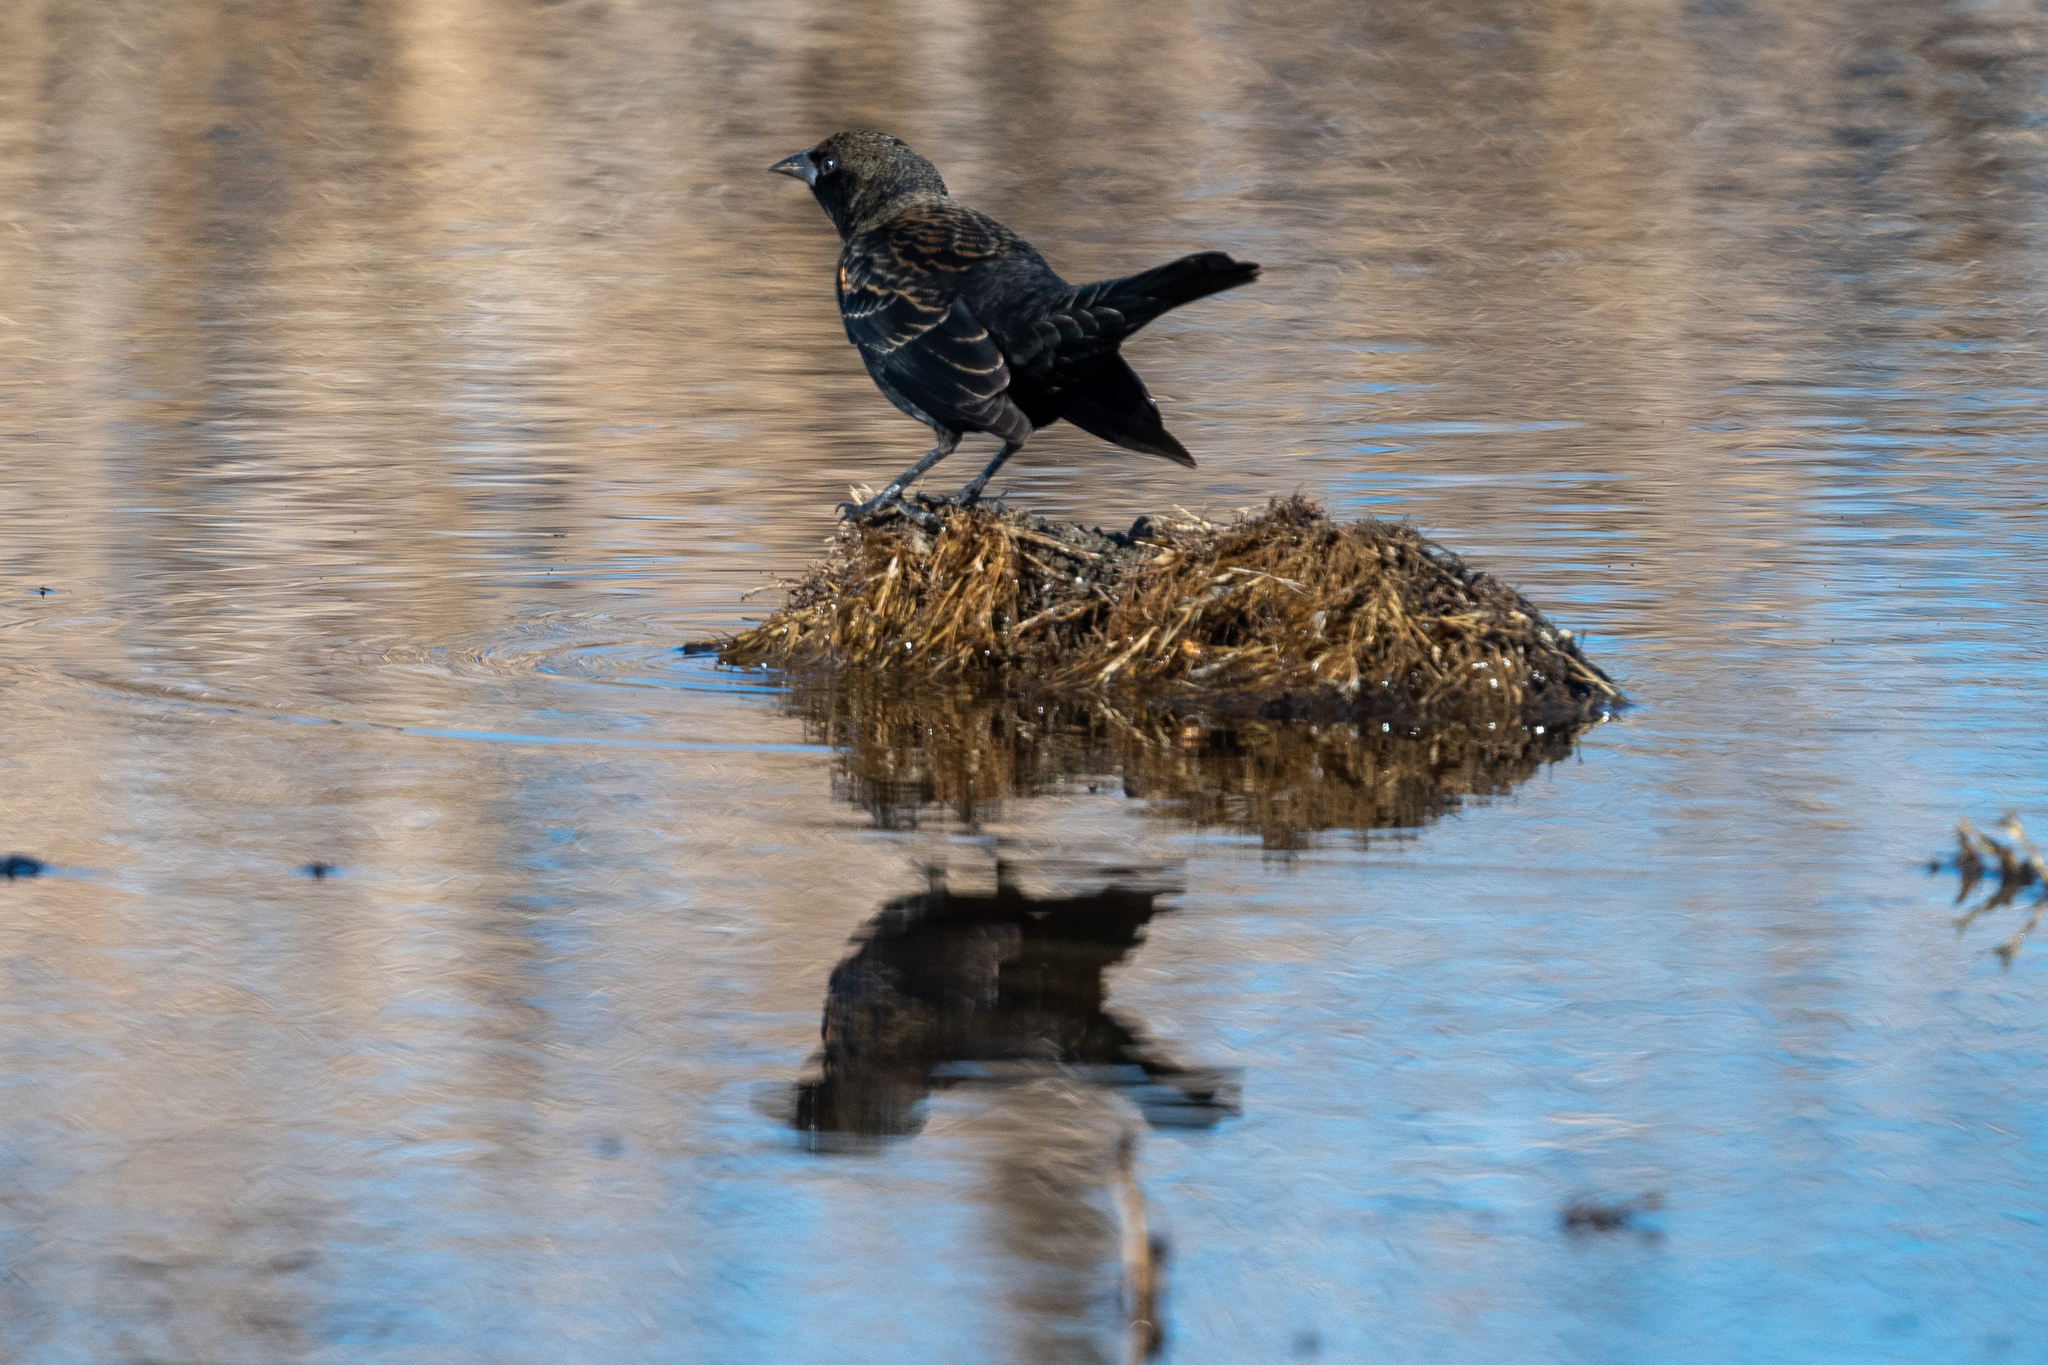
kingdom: Animalia
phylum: Chordata
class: Aves
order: Passeriformes
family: Icteridae
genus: Agelaius
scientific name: Agelaius phoeniceus
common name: Red-winged blackbird
